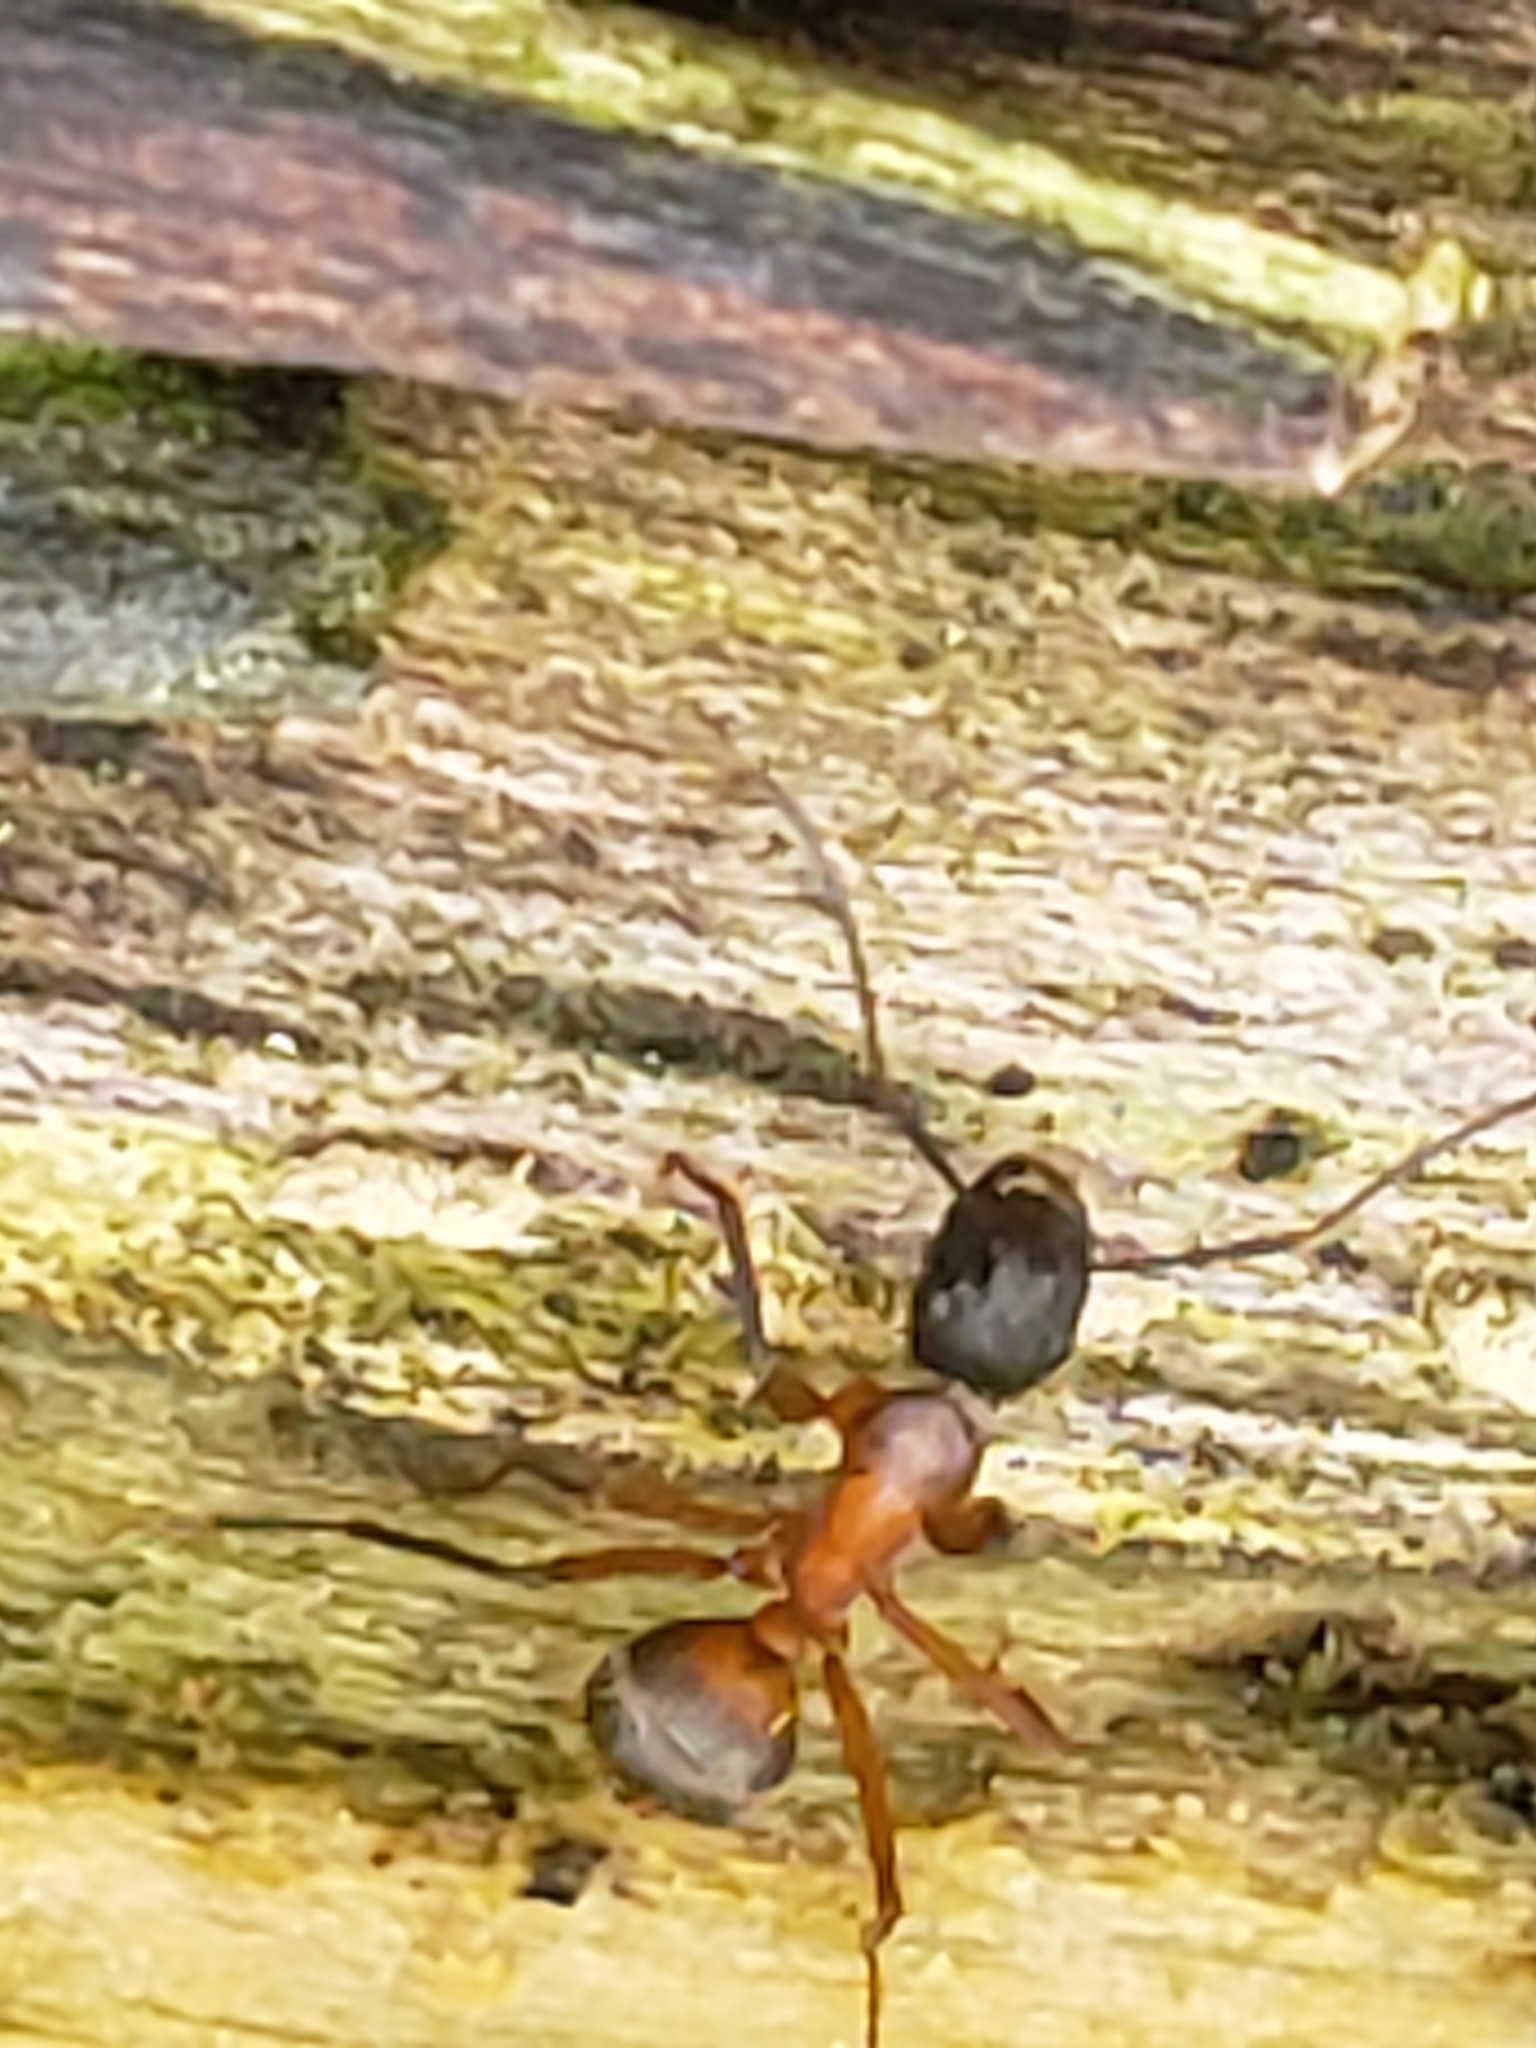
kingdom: Animalia
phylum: Arthropoda
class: Insecta
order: Hymenoptera
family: Formicidae
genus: Camponotus
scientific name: Camponotus chromaiodes
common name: Red carpenter ant
